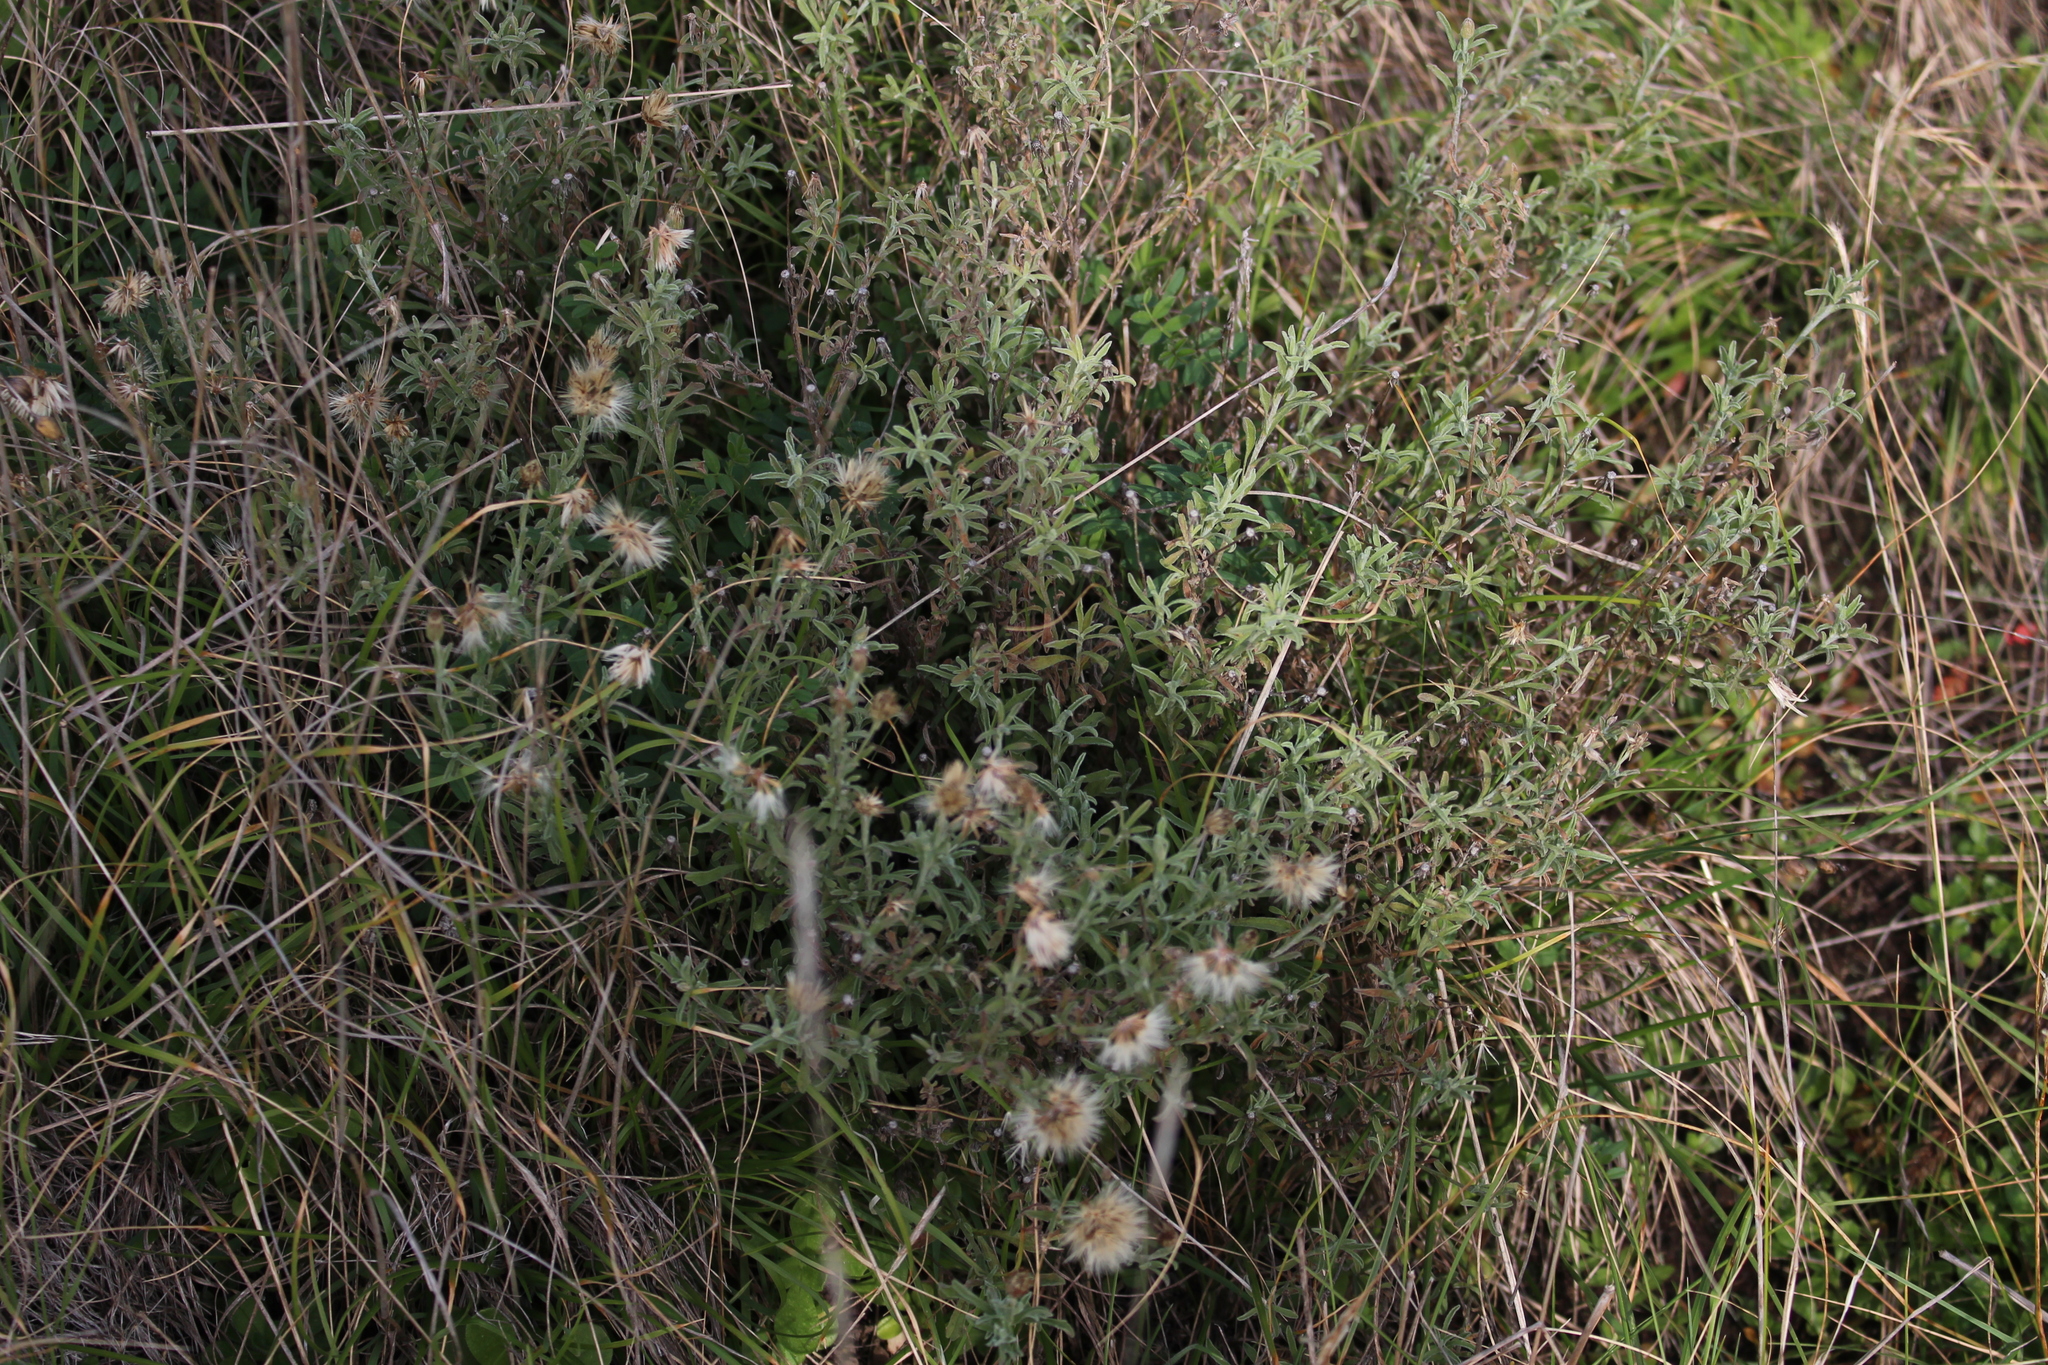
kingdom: Plantae
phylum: Tracheophyta
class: Magnoliopsida
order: Asterales
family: Asteraceae
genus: Vittadinia
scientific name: Vittadinia gracilis
